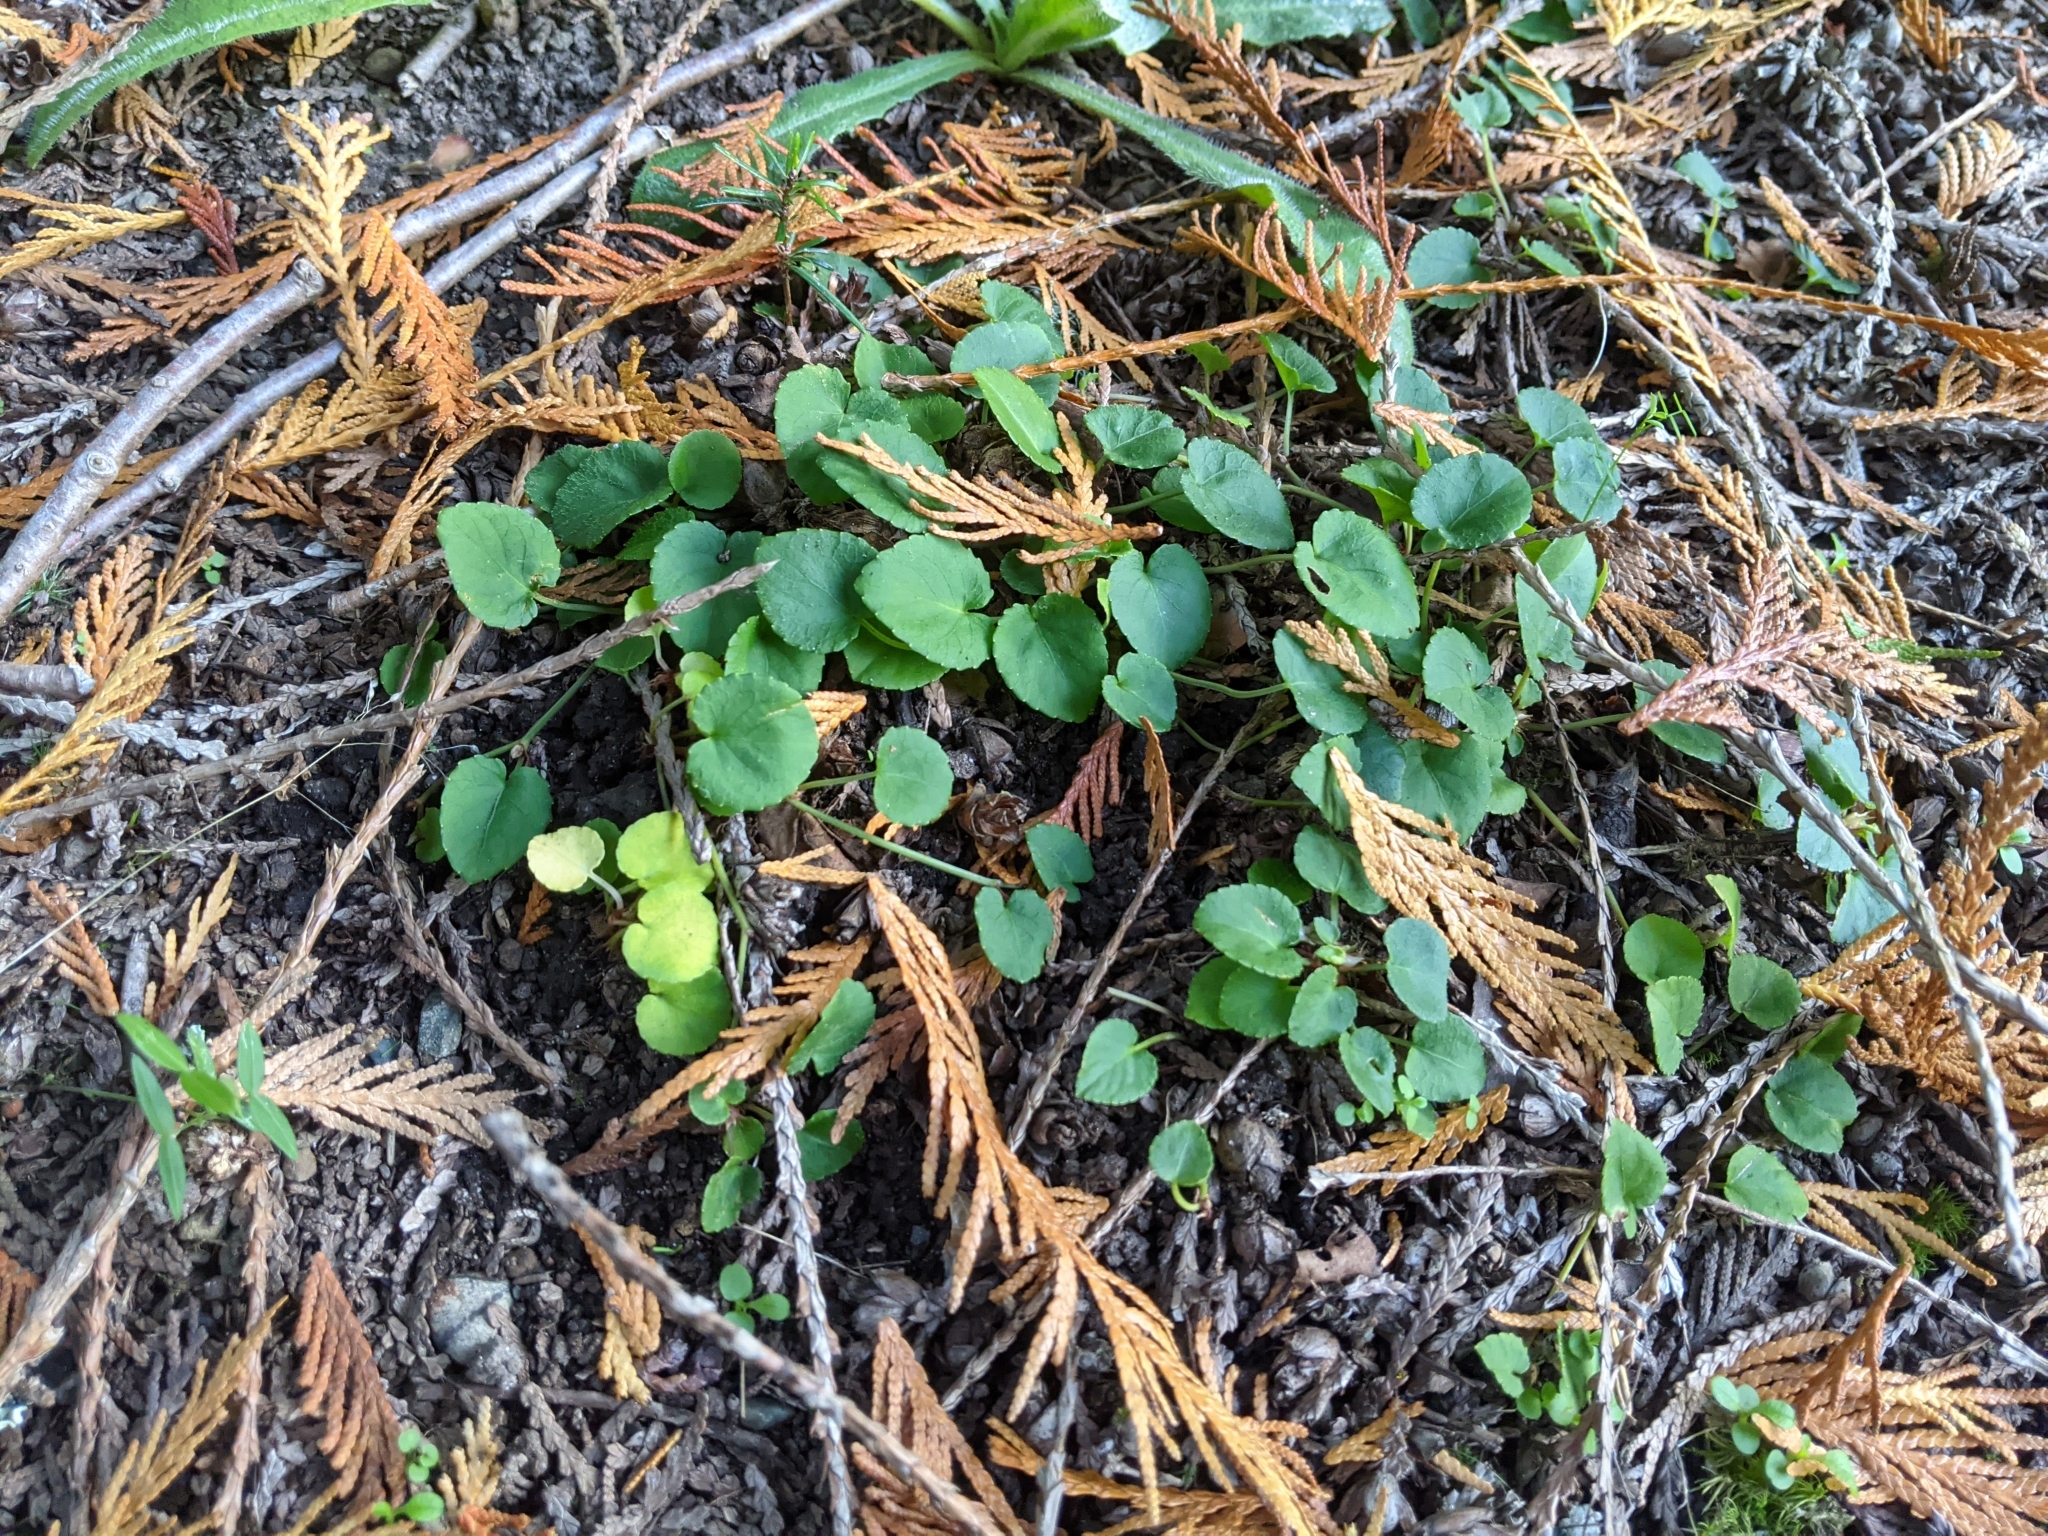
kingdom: Plantae
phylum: Tracheophyta
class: Magnoliopsida
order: Malpighiales
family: Violaceae
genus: Viola
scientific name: Viola sempervirens
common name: Evergreen violet
